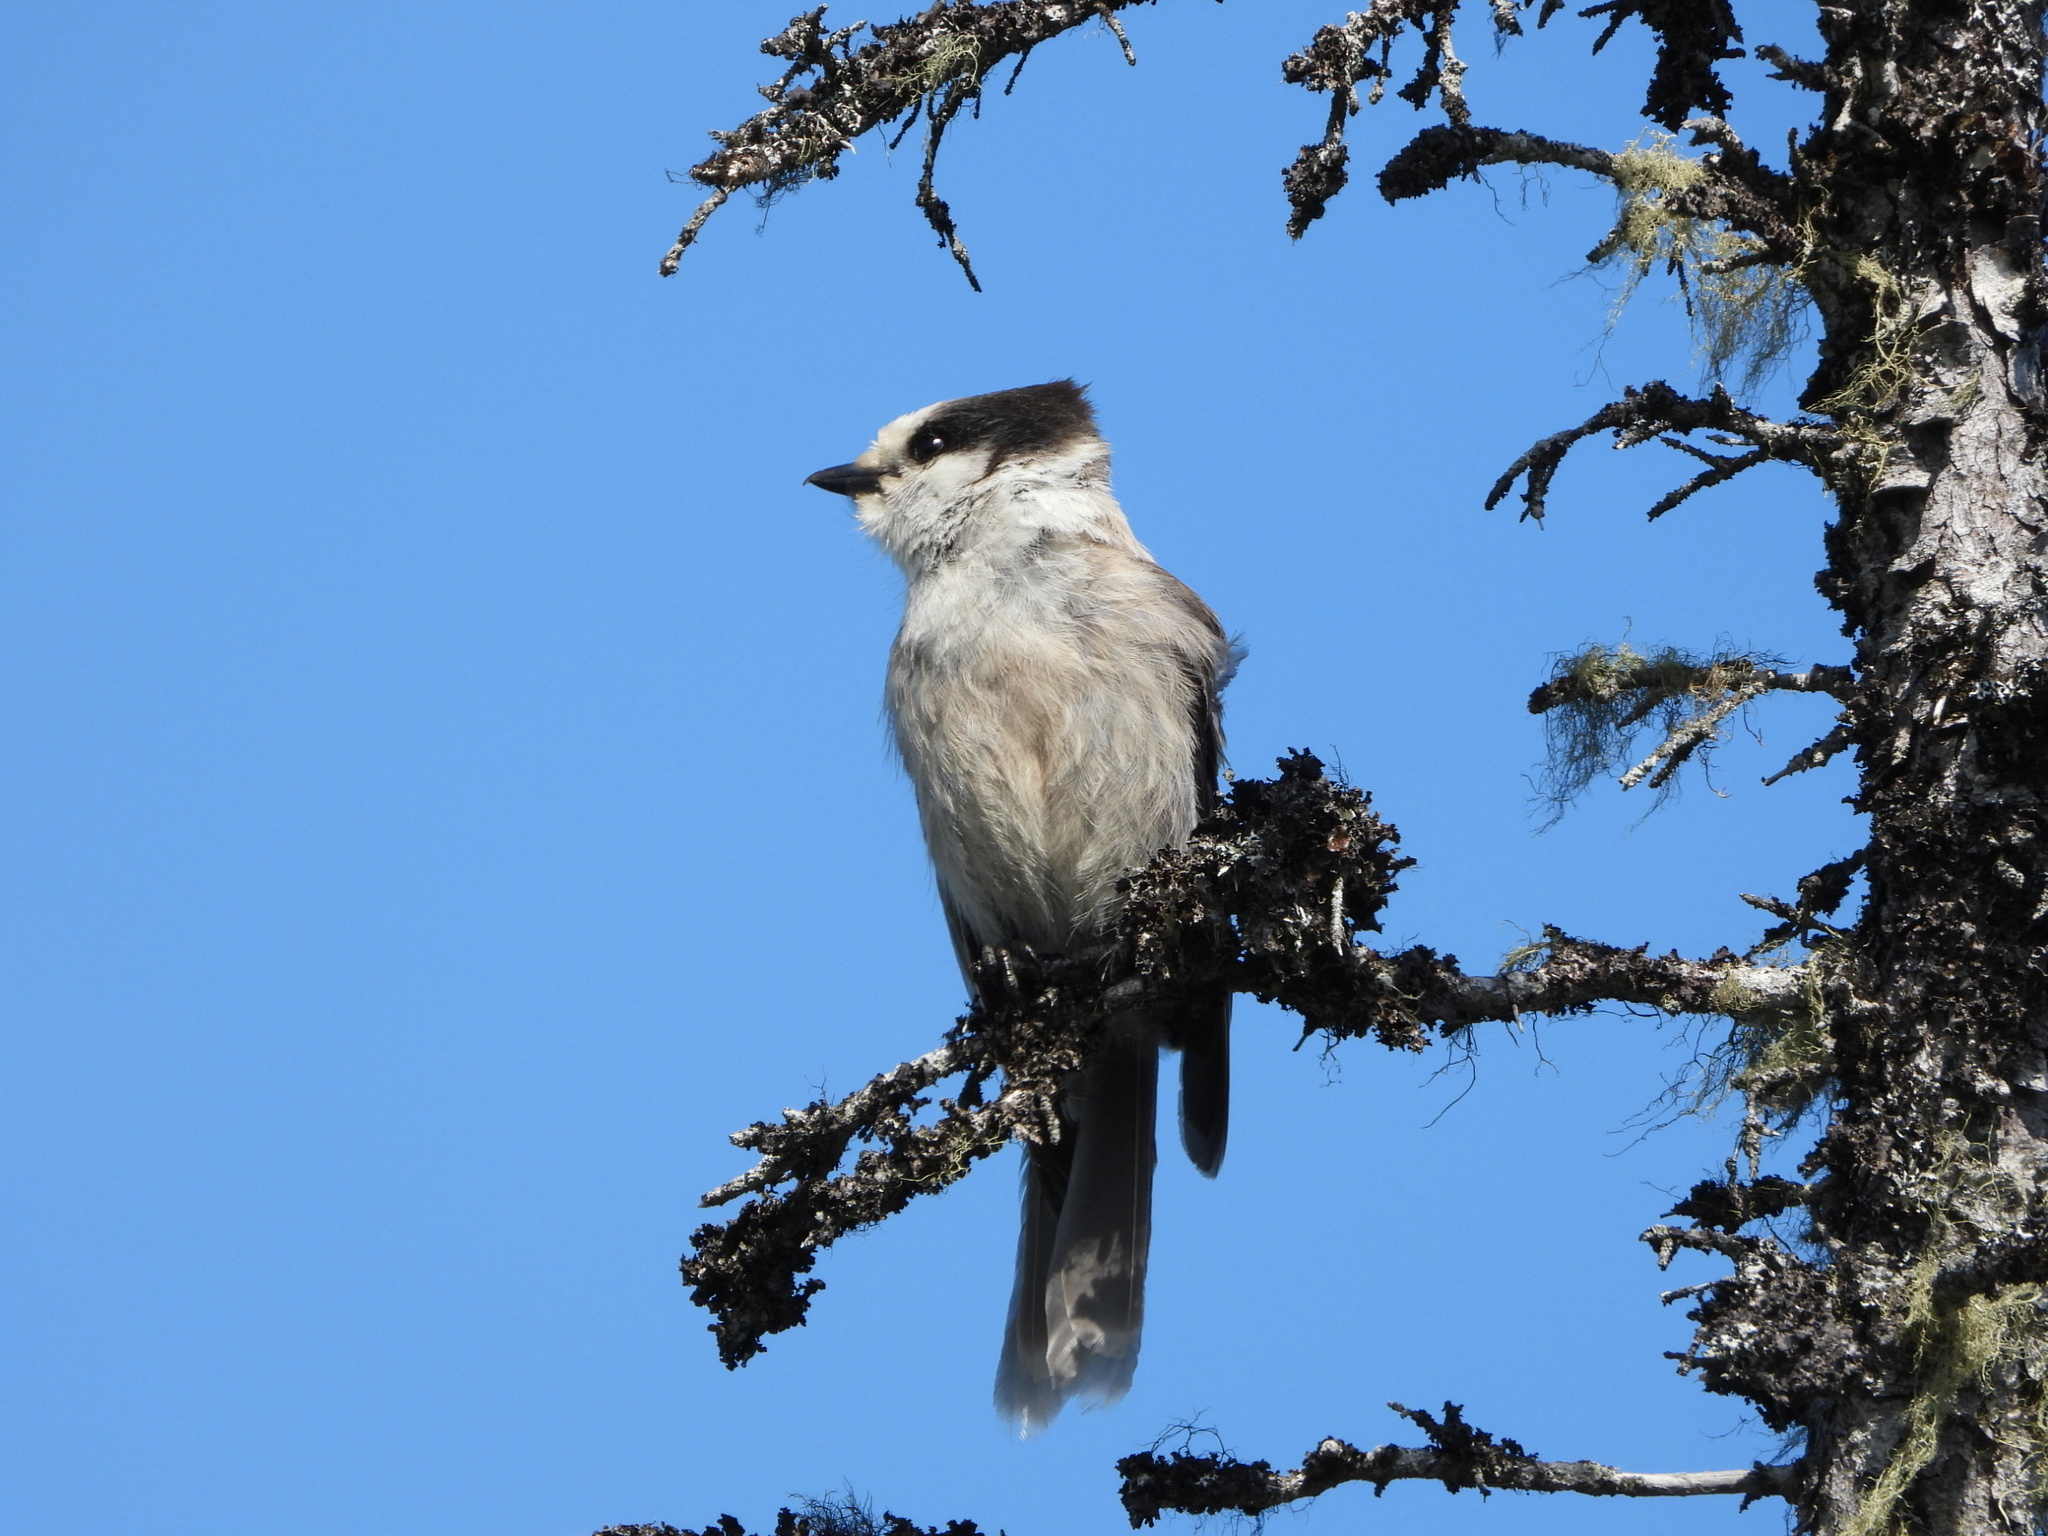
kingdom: Animalia
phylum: Chordata
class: Aves
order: Passeriformes
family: Corvidae
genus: Perisoreus
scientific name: Perisoreus canadensis
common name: Gray jay
